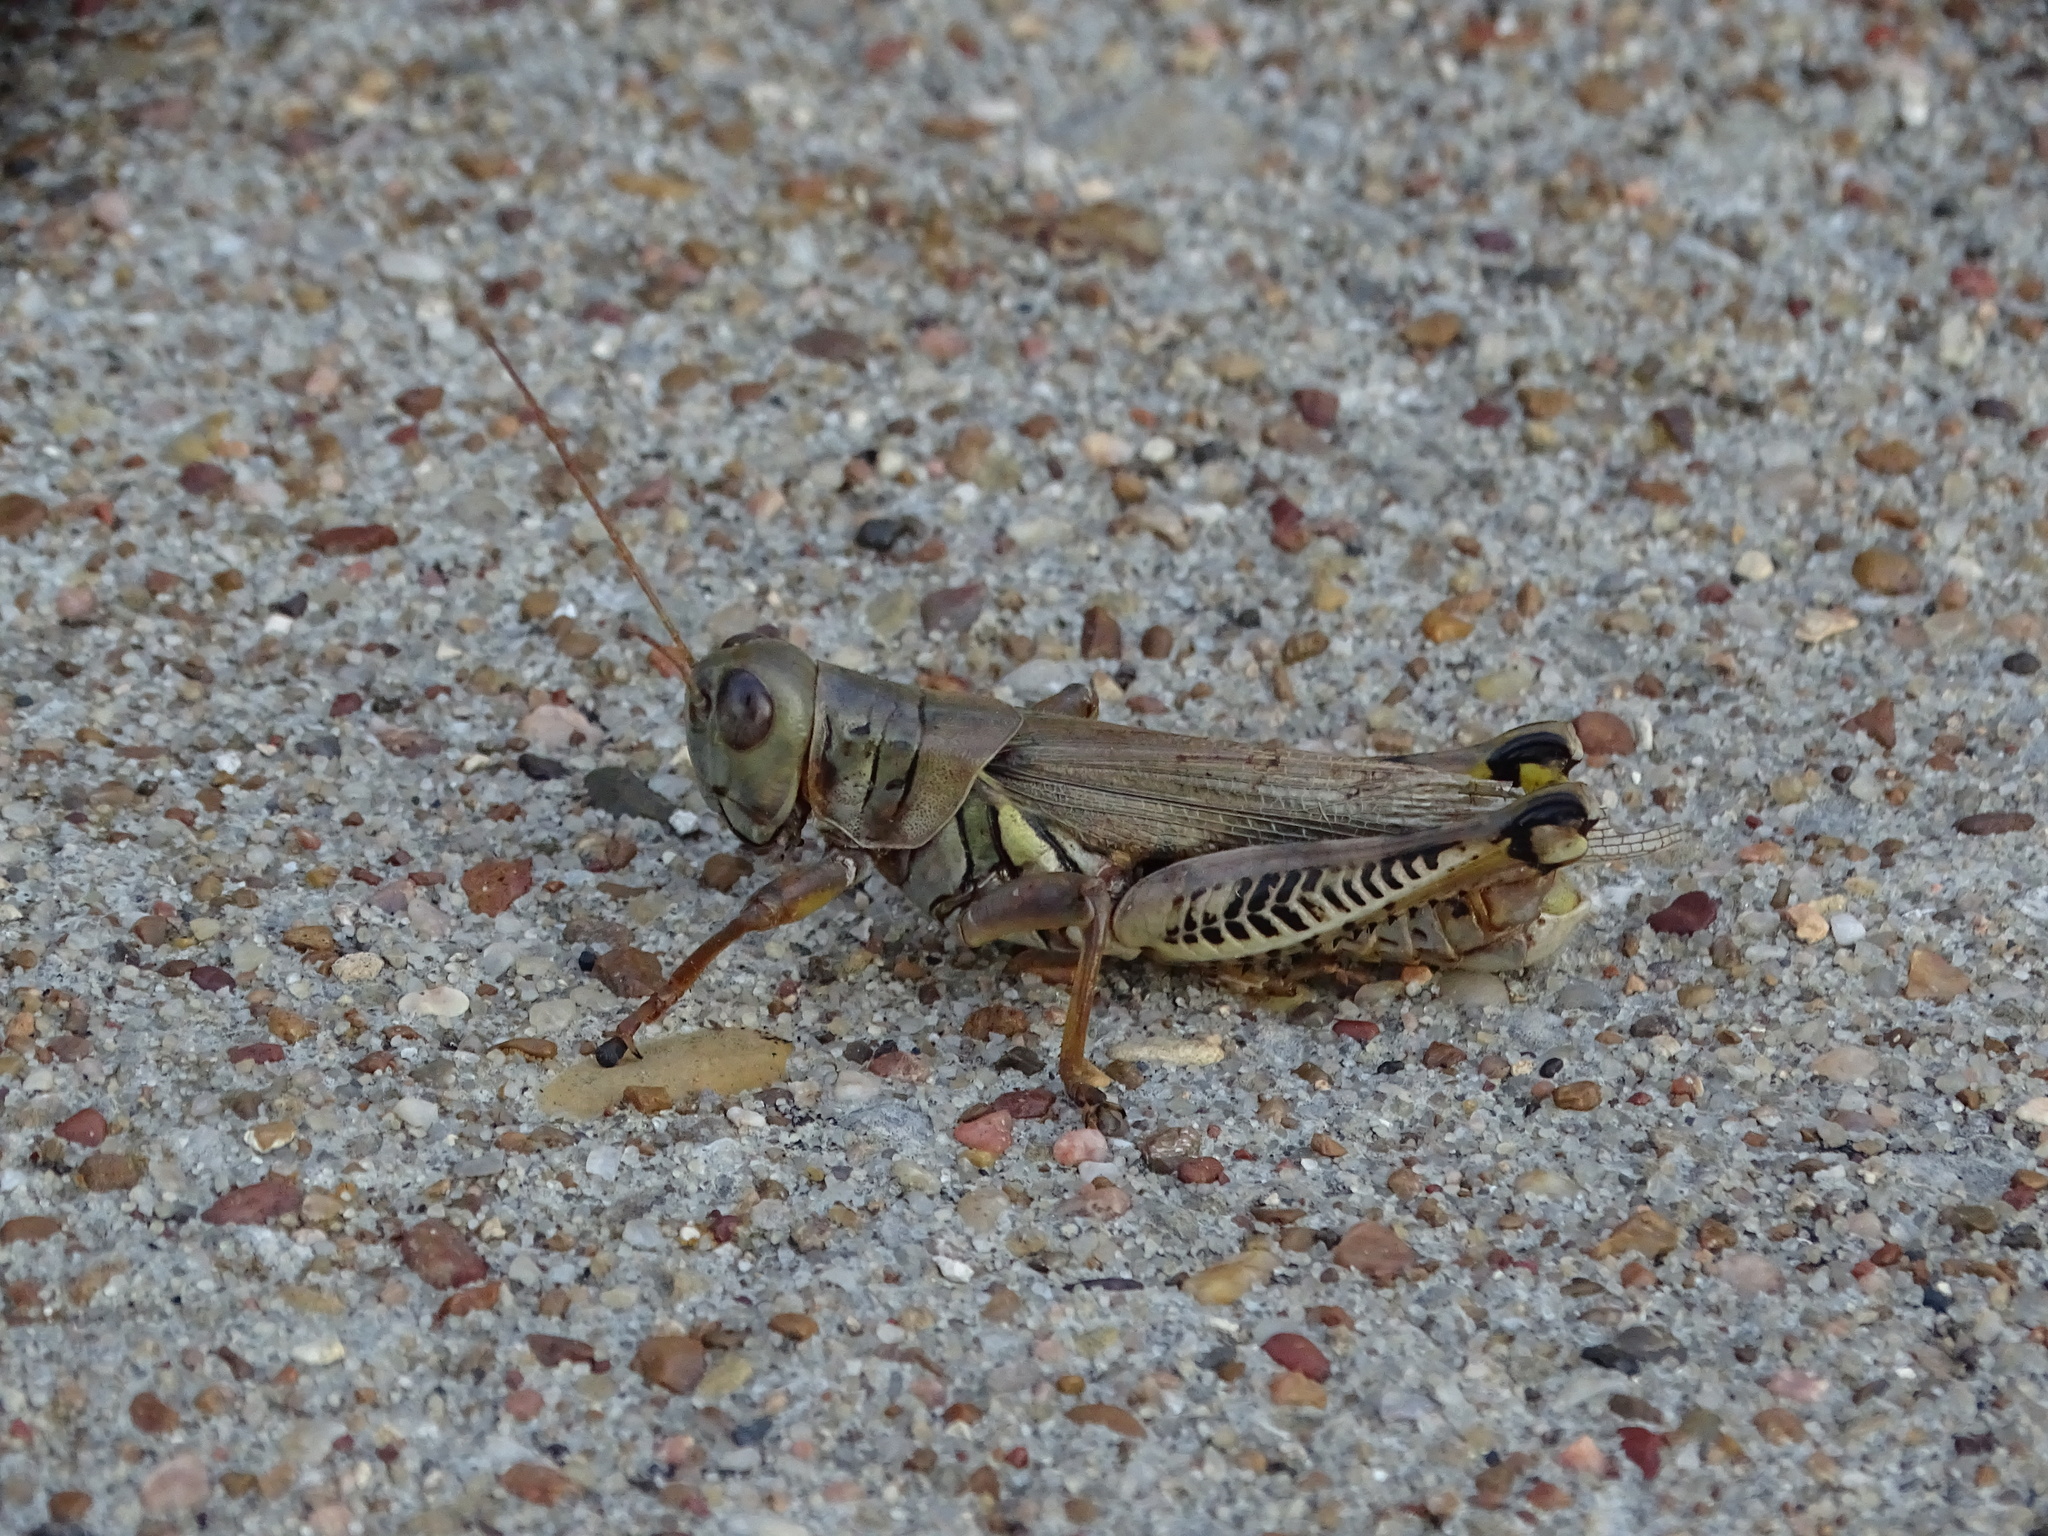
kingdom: Animalia
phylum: Arthropoda
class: Insecta
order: Orthoptera
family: Acrididae
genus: Melanoplus
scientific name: Melanoplus differentialis
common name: Differential grasshopper
